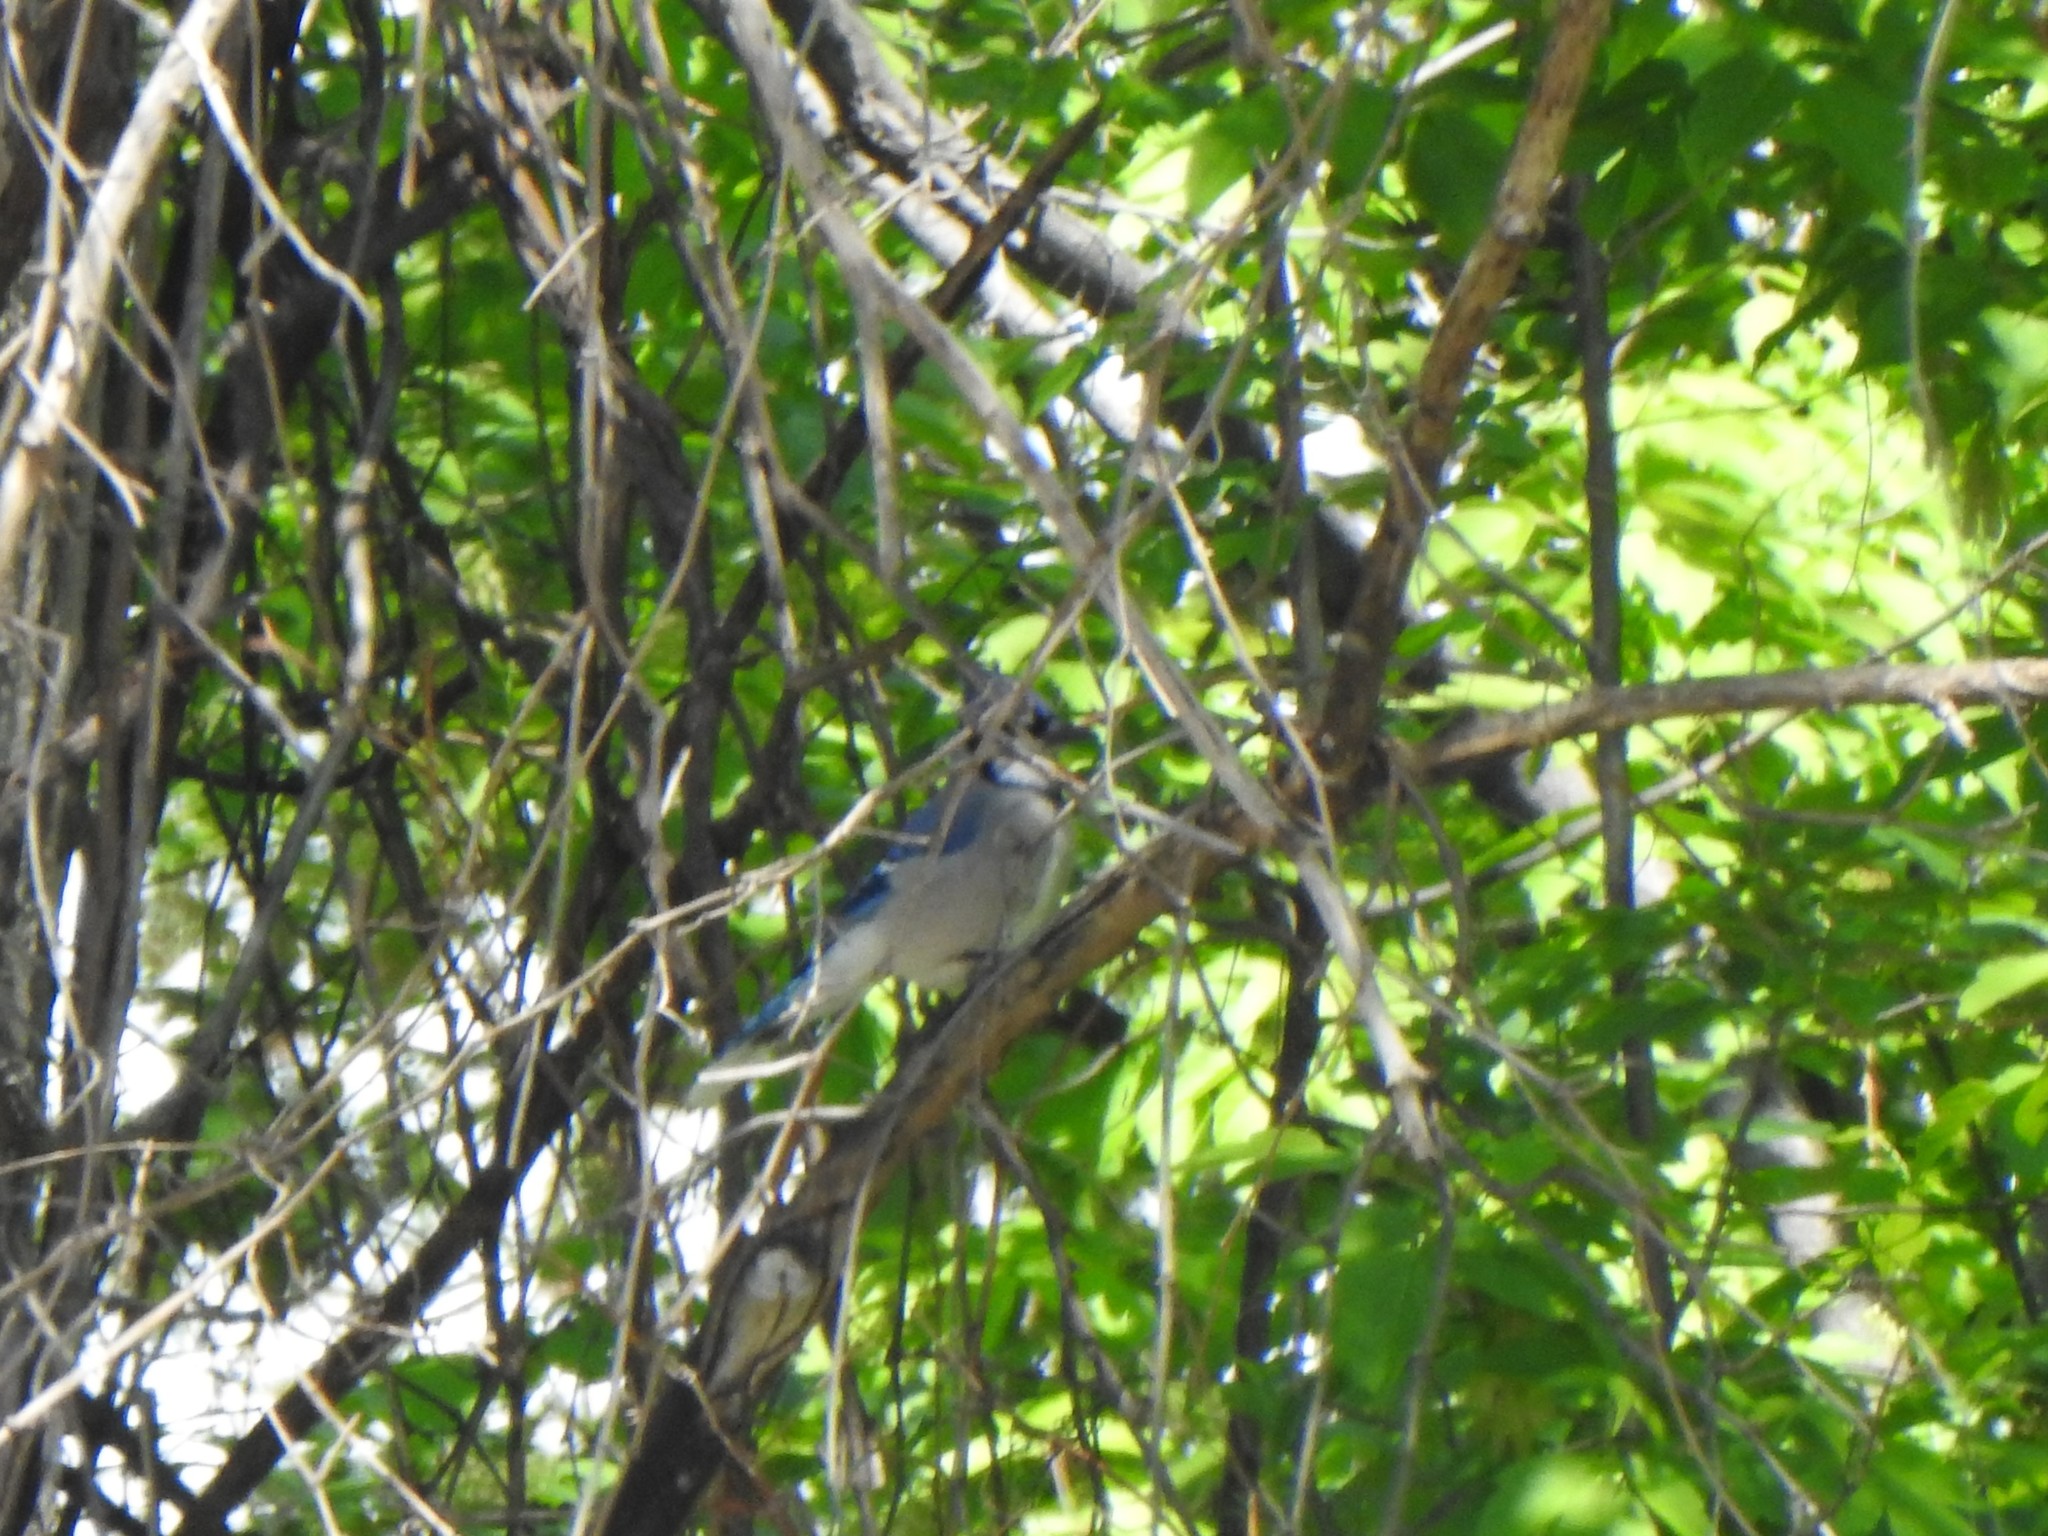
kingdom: Animalia
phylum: Chordata
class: Aves
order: Passeriformes
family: Corvidae
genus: Cyanocitta
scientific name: Cyanocitta cristata
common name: Blue jay
